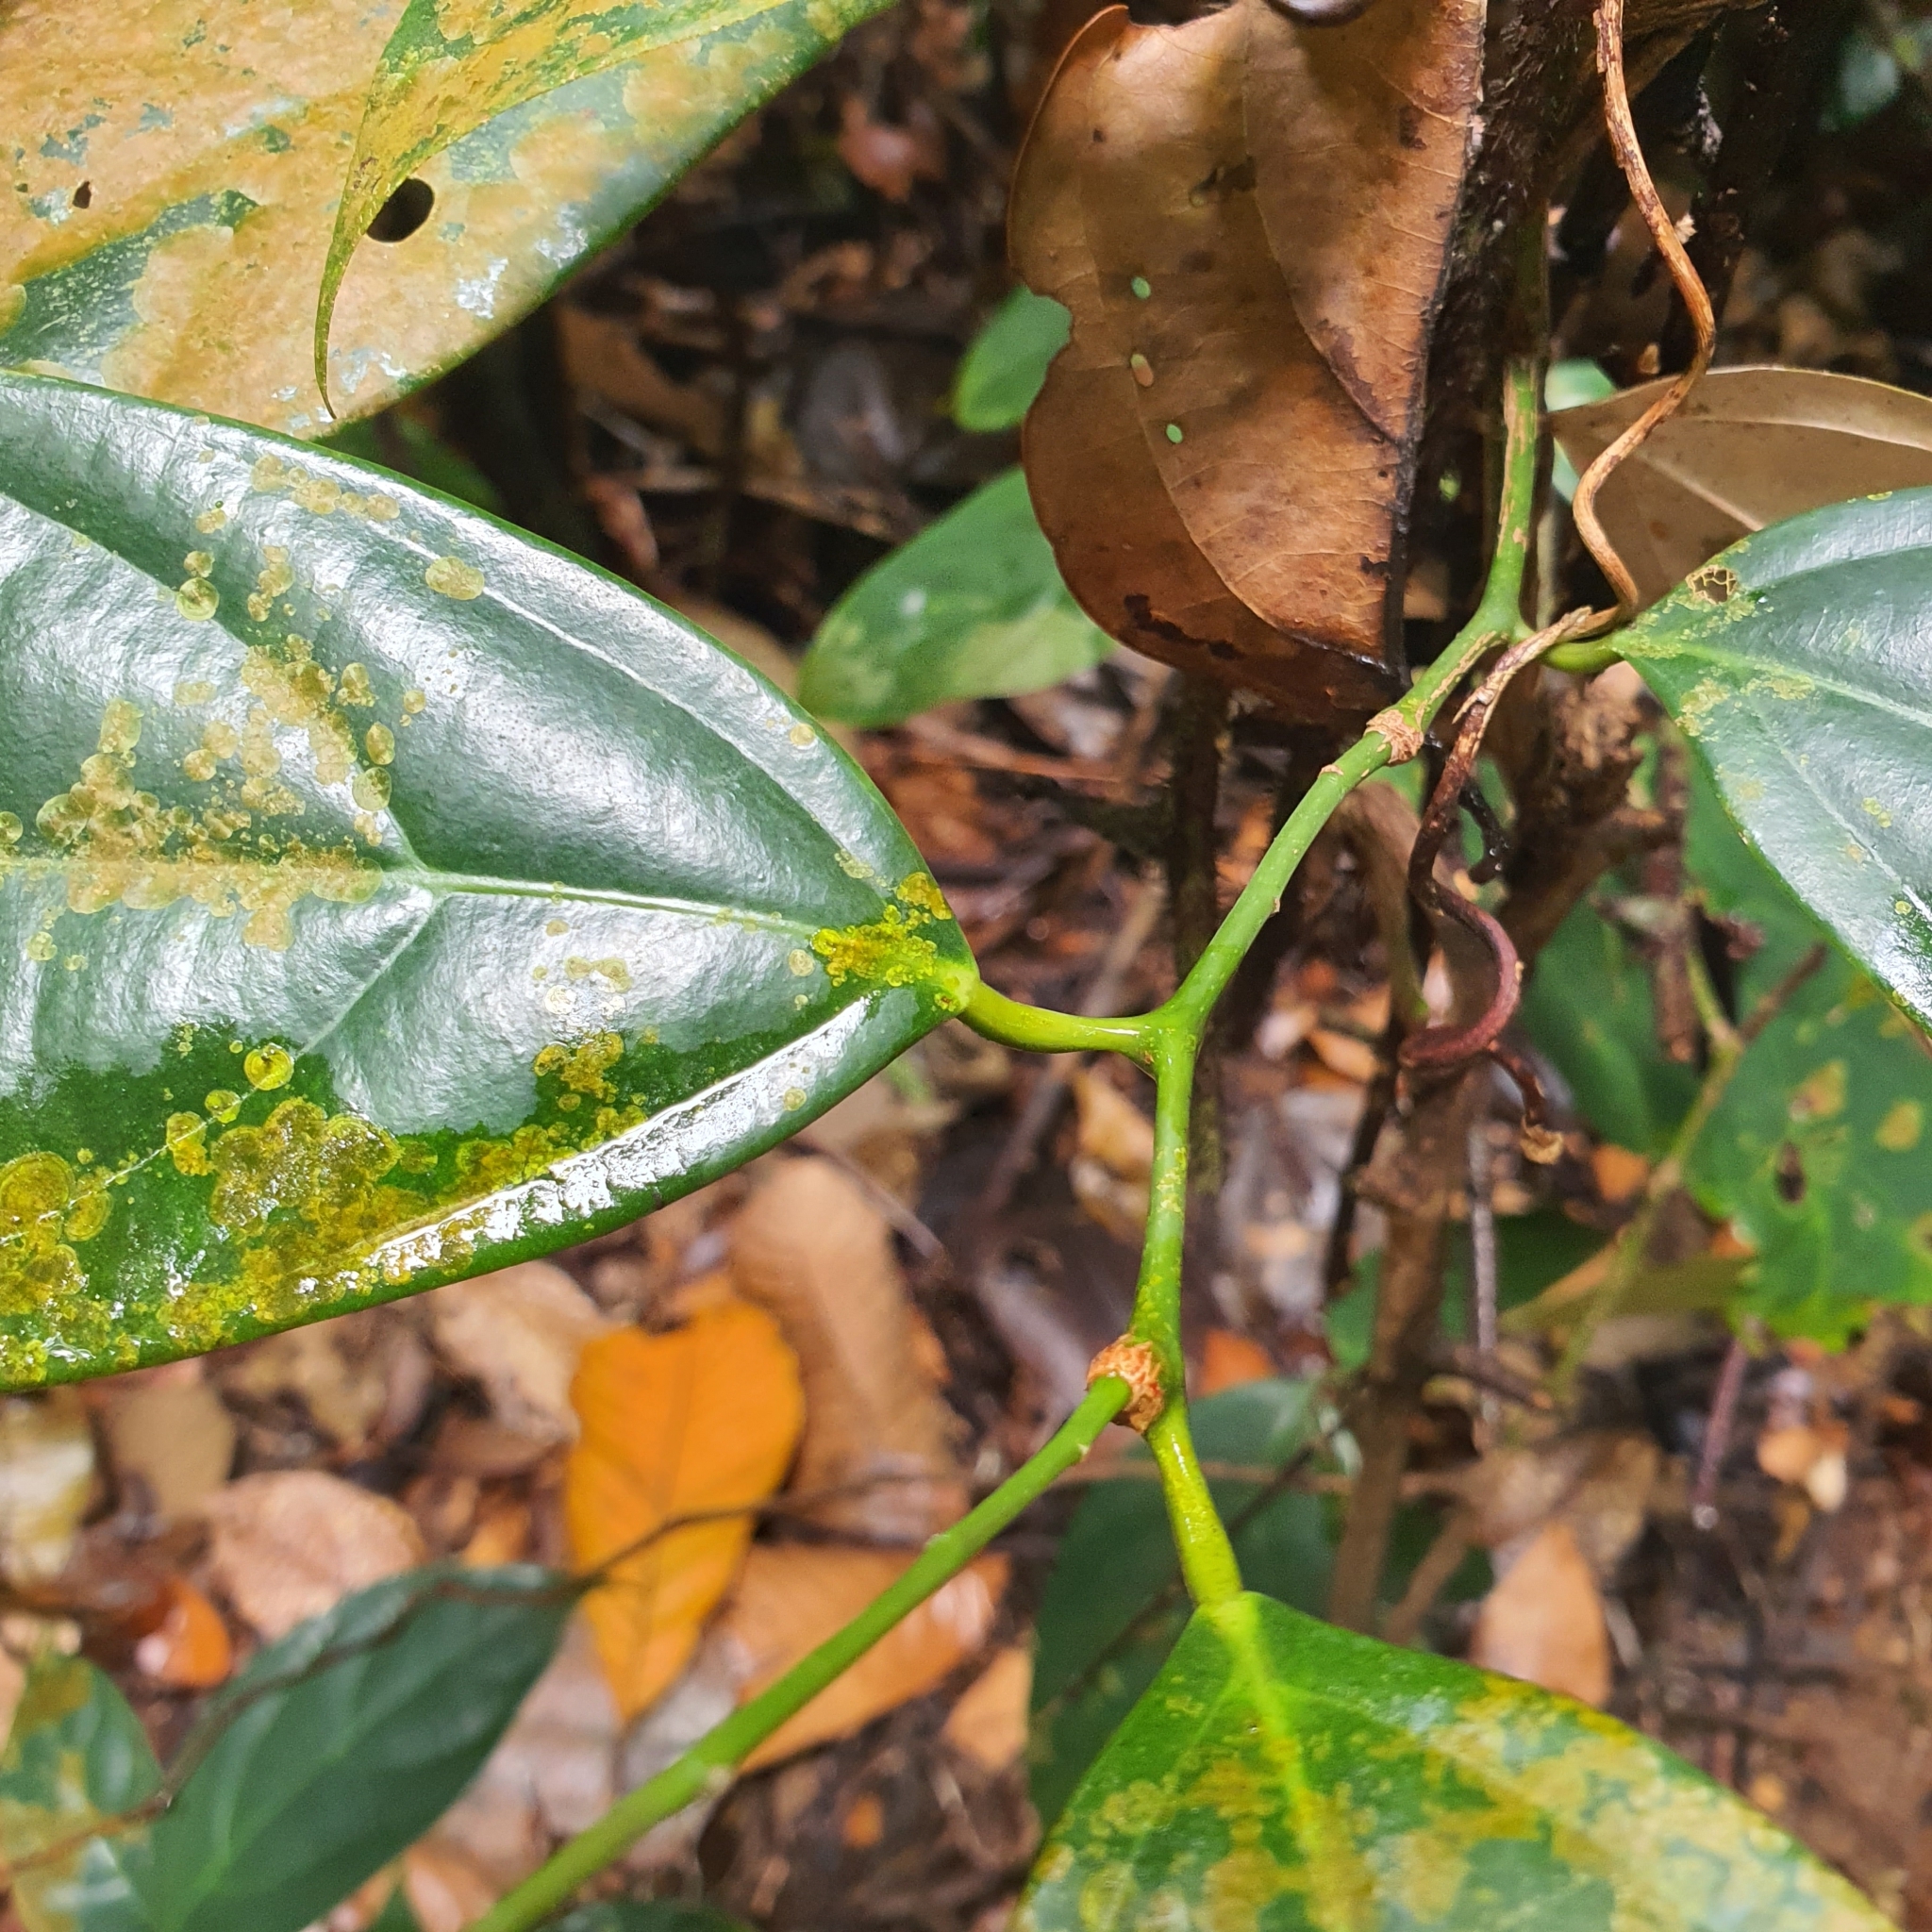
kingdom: Plantae
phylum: Tracheophyta
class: Magnoliopsida
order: Santalales
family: Strombosiaceae
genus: Scorodocarpus
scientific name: Scorodocarpus borneensis
